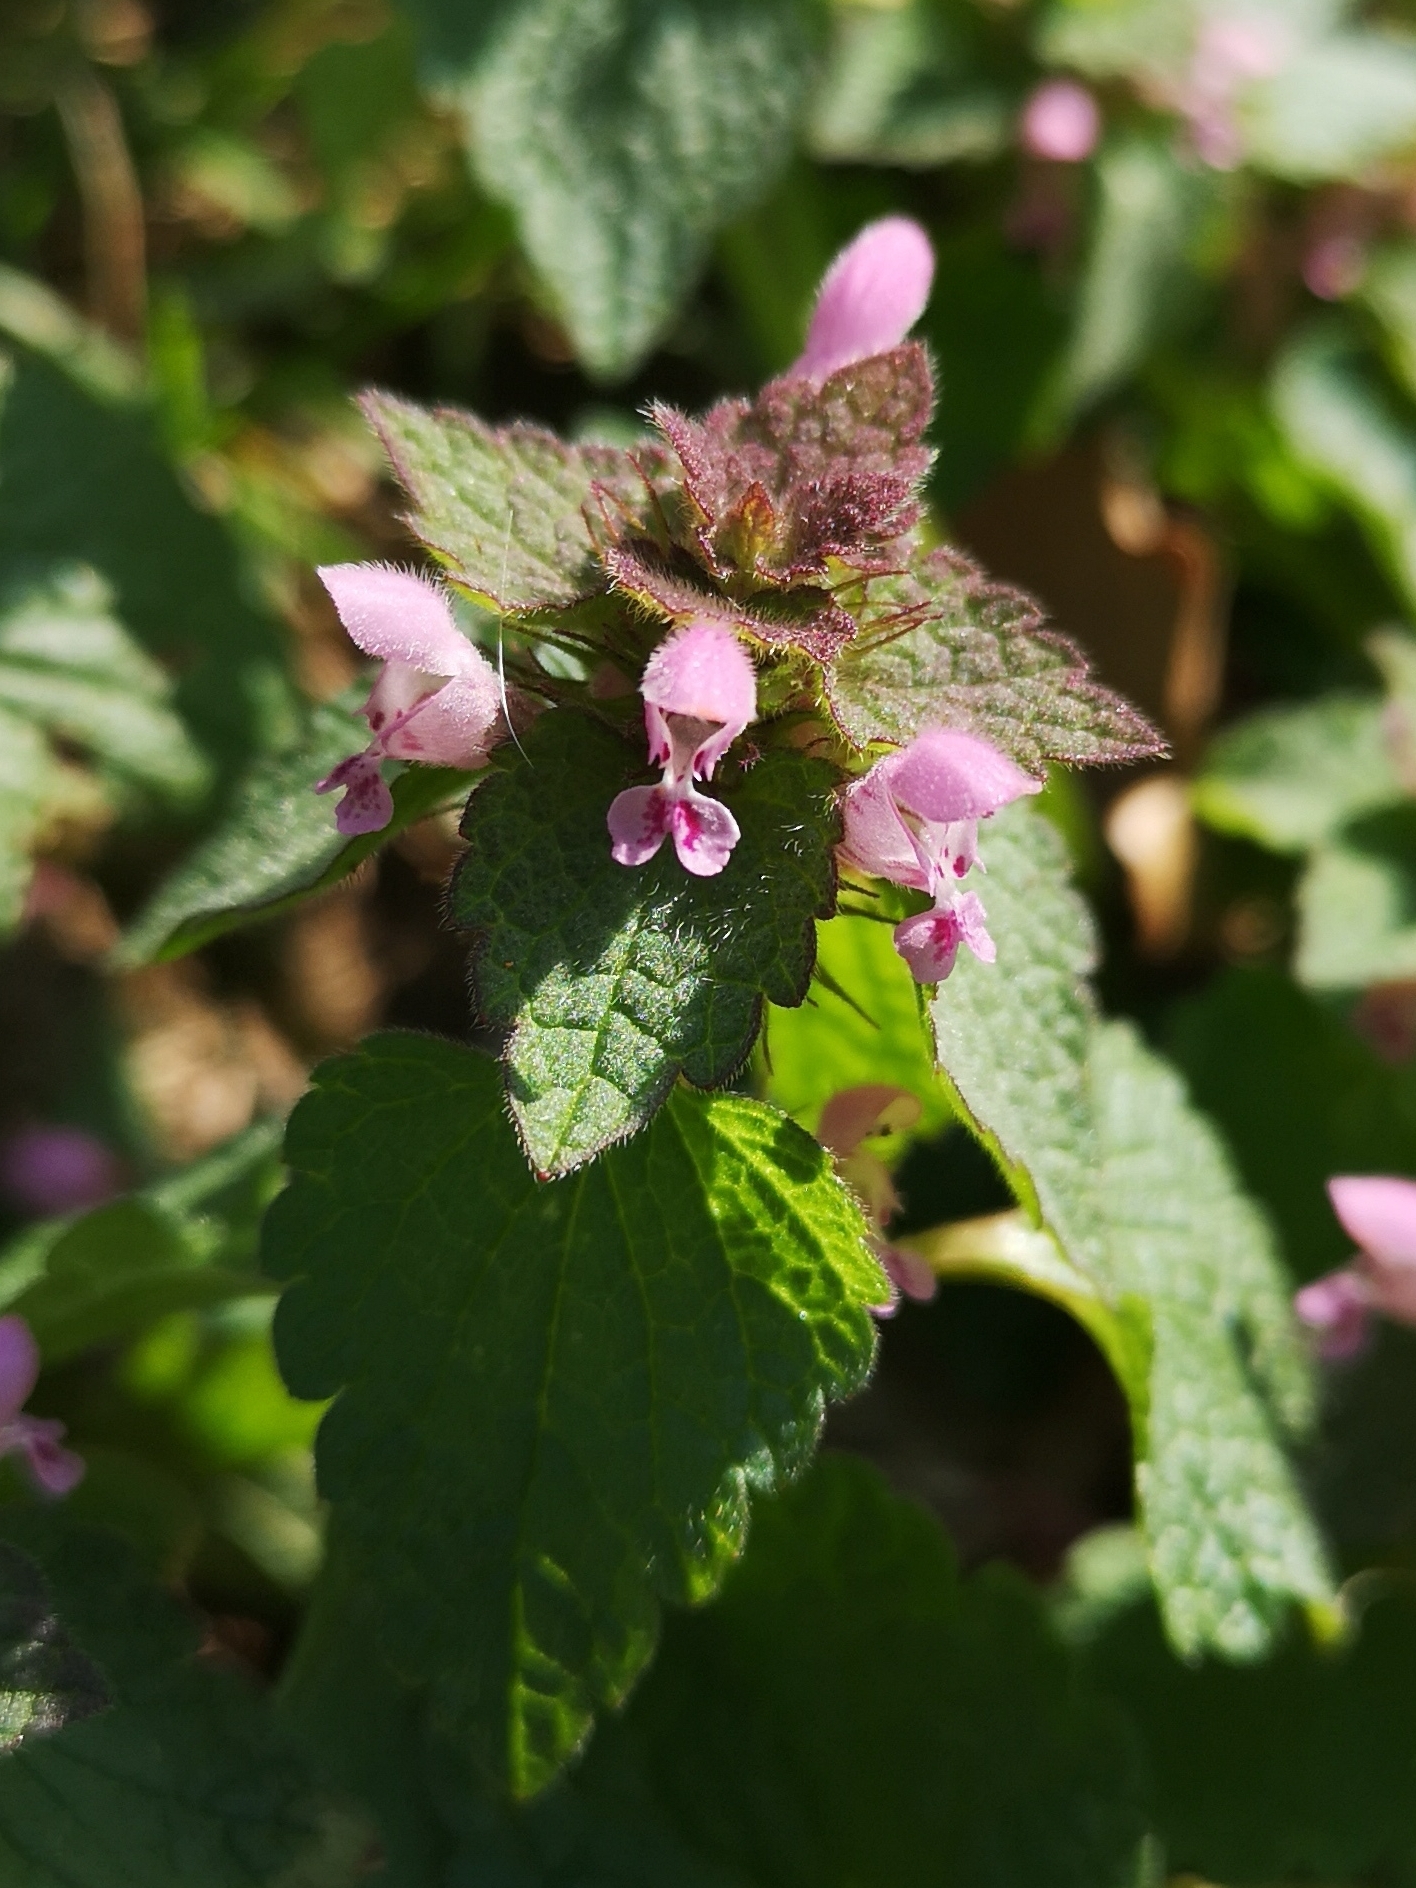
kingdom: Plantae
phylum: Tracheophyta
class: Magnoliopsida
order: Lamiales
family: Lamiaceae
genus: Lamium
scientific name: Lamium purpureum
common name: Red dead-nettle
